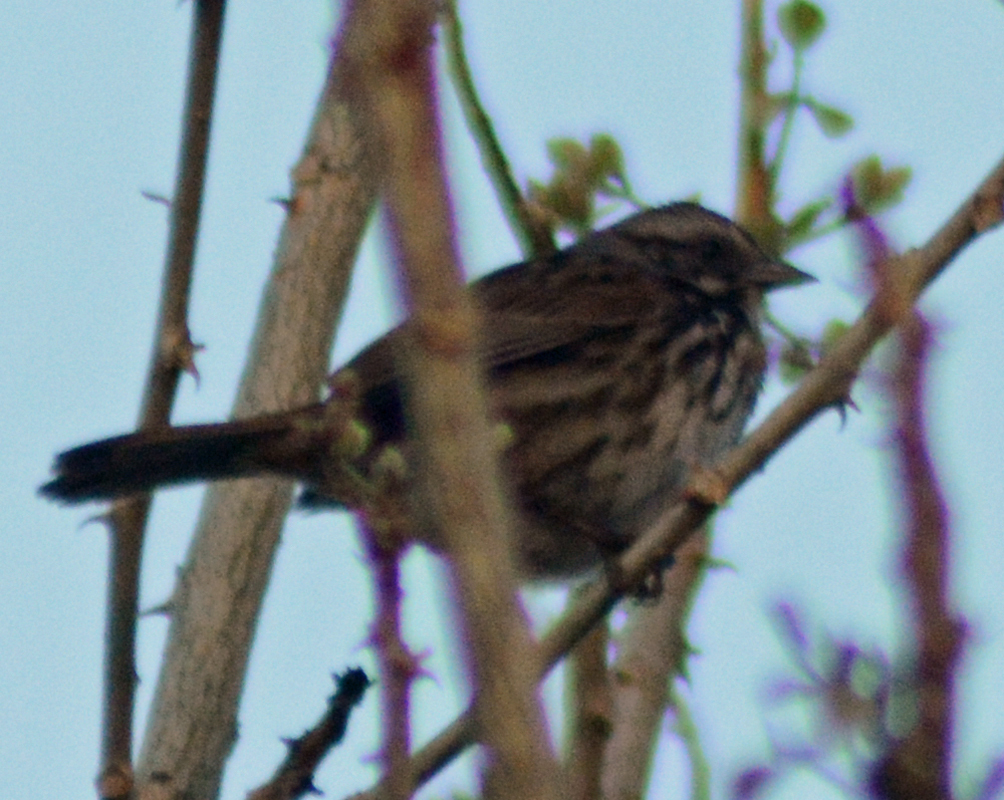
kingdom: Animalia
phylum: Chordata
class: Aves
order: Passeriformes
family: Passerellidae
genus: Melospiza
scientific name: Melospiza melodia
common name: Song sparrow
